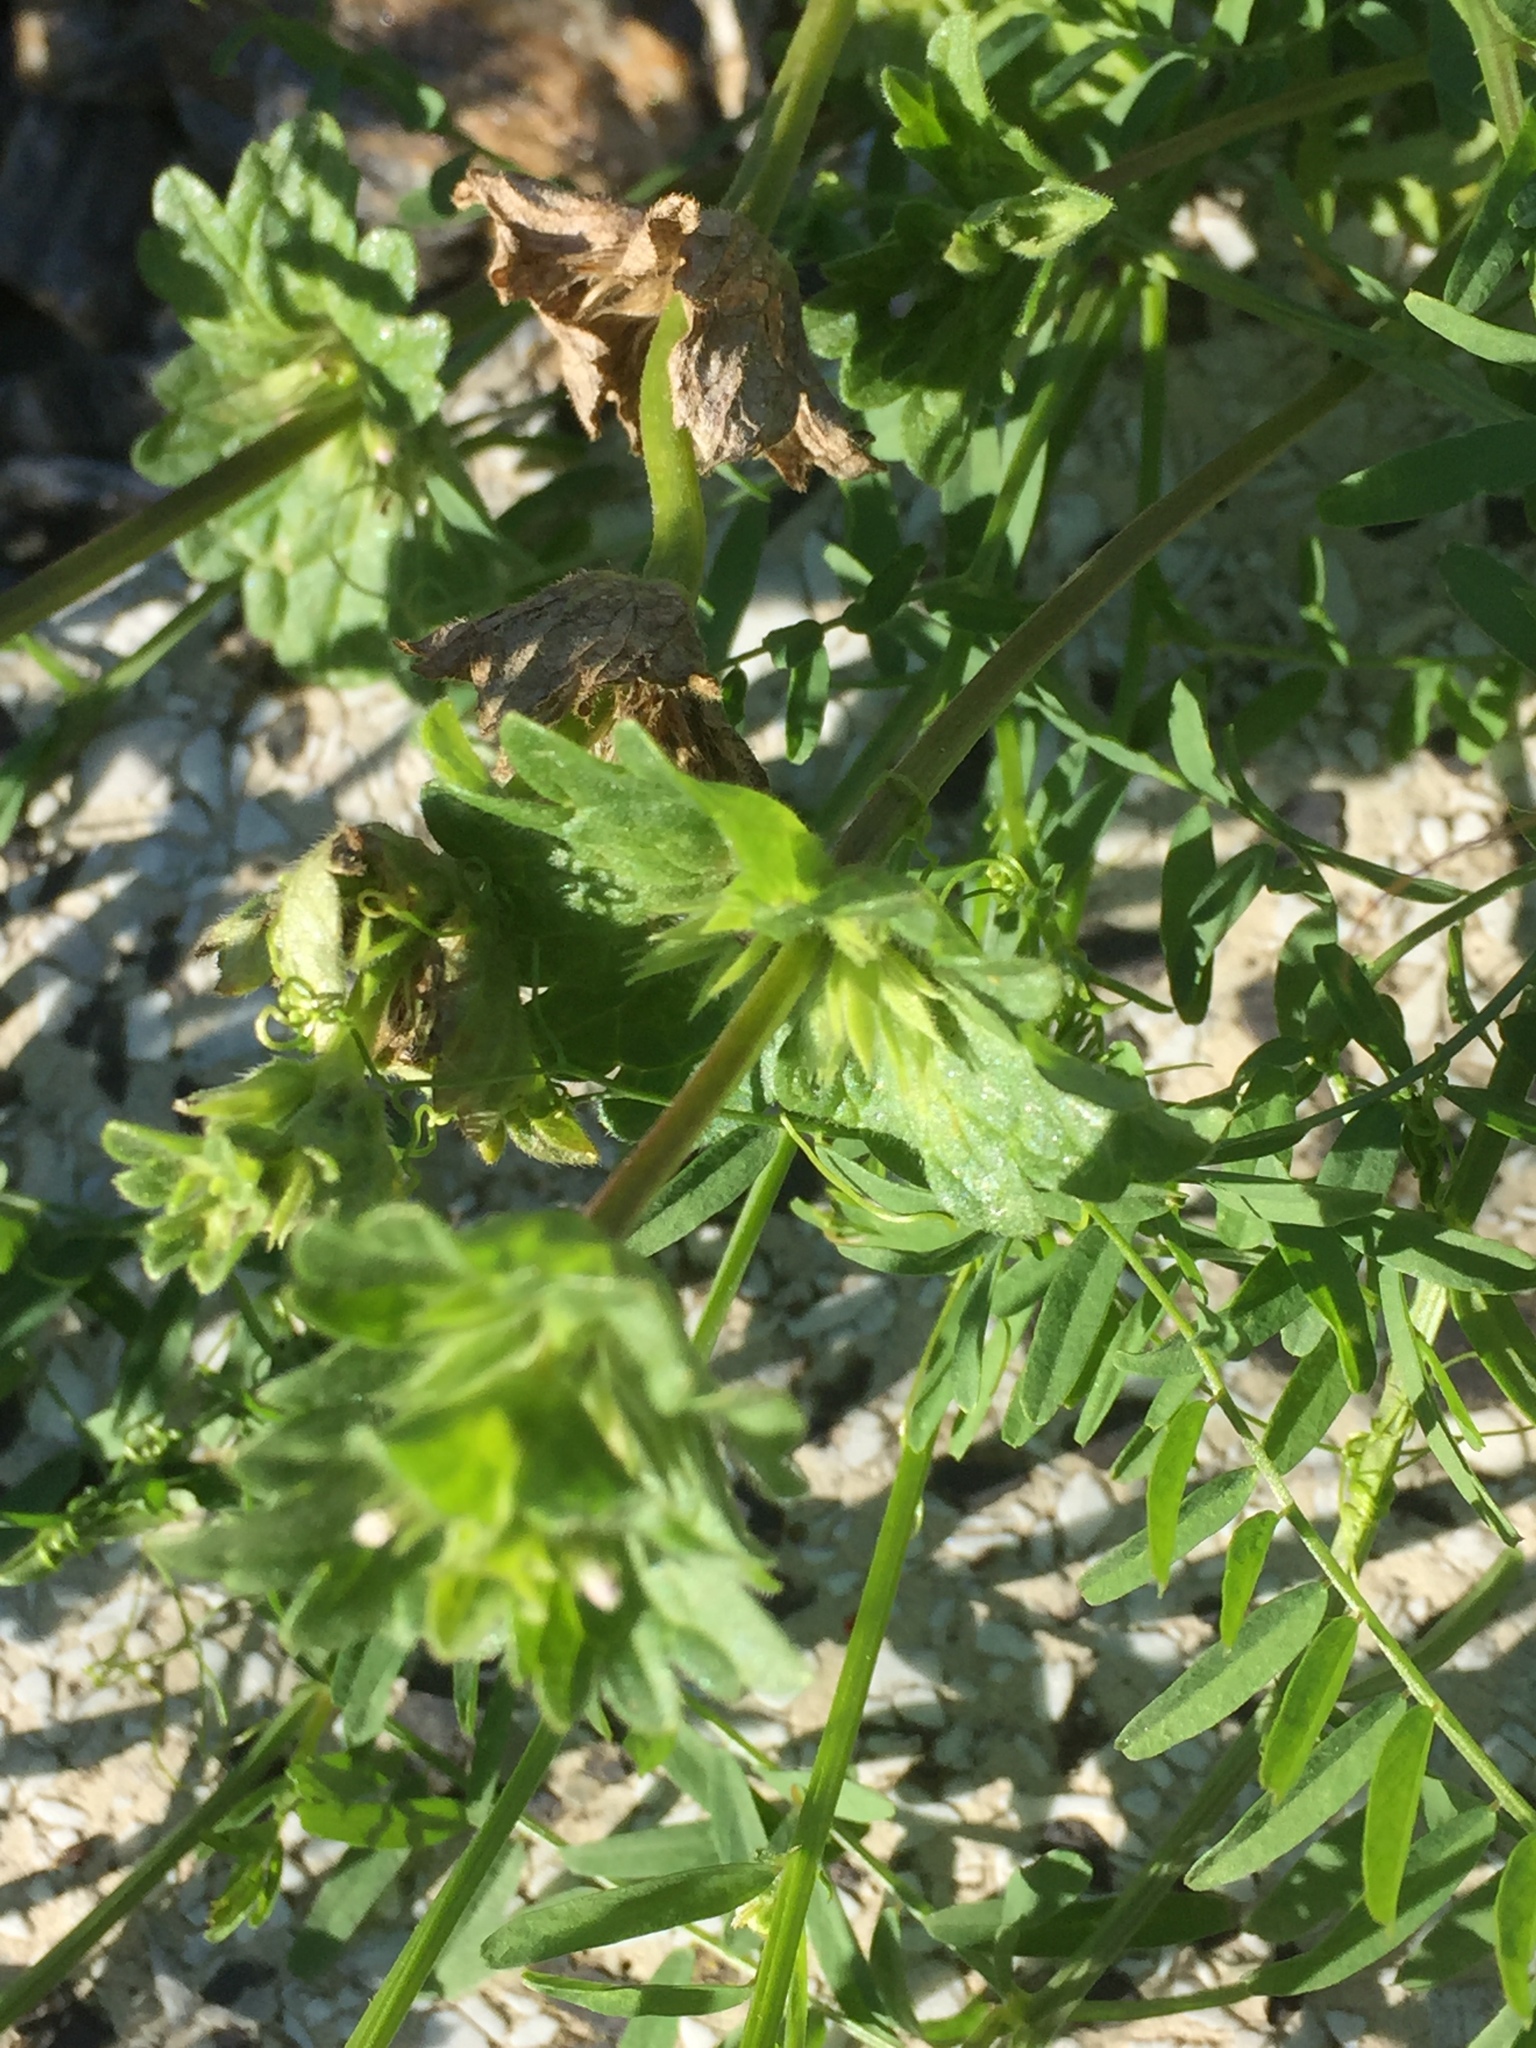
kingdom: Plantae
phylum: Tracheophyta
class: Magnoliopsida
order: Lamiales
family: Lamiaceae
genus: Lamium
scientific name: Lamium amplexicaule
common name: Henbit dead-nettle
